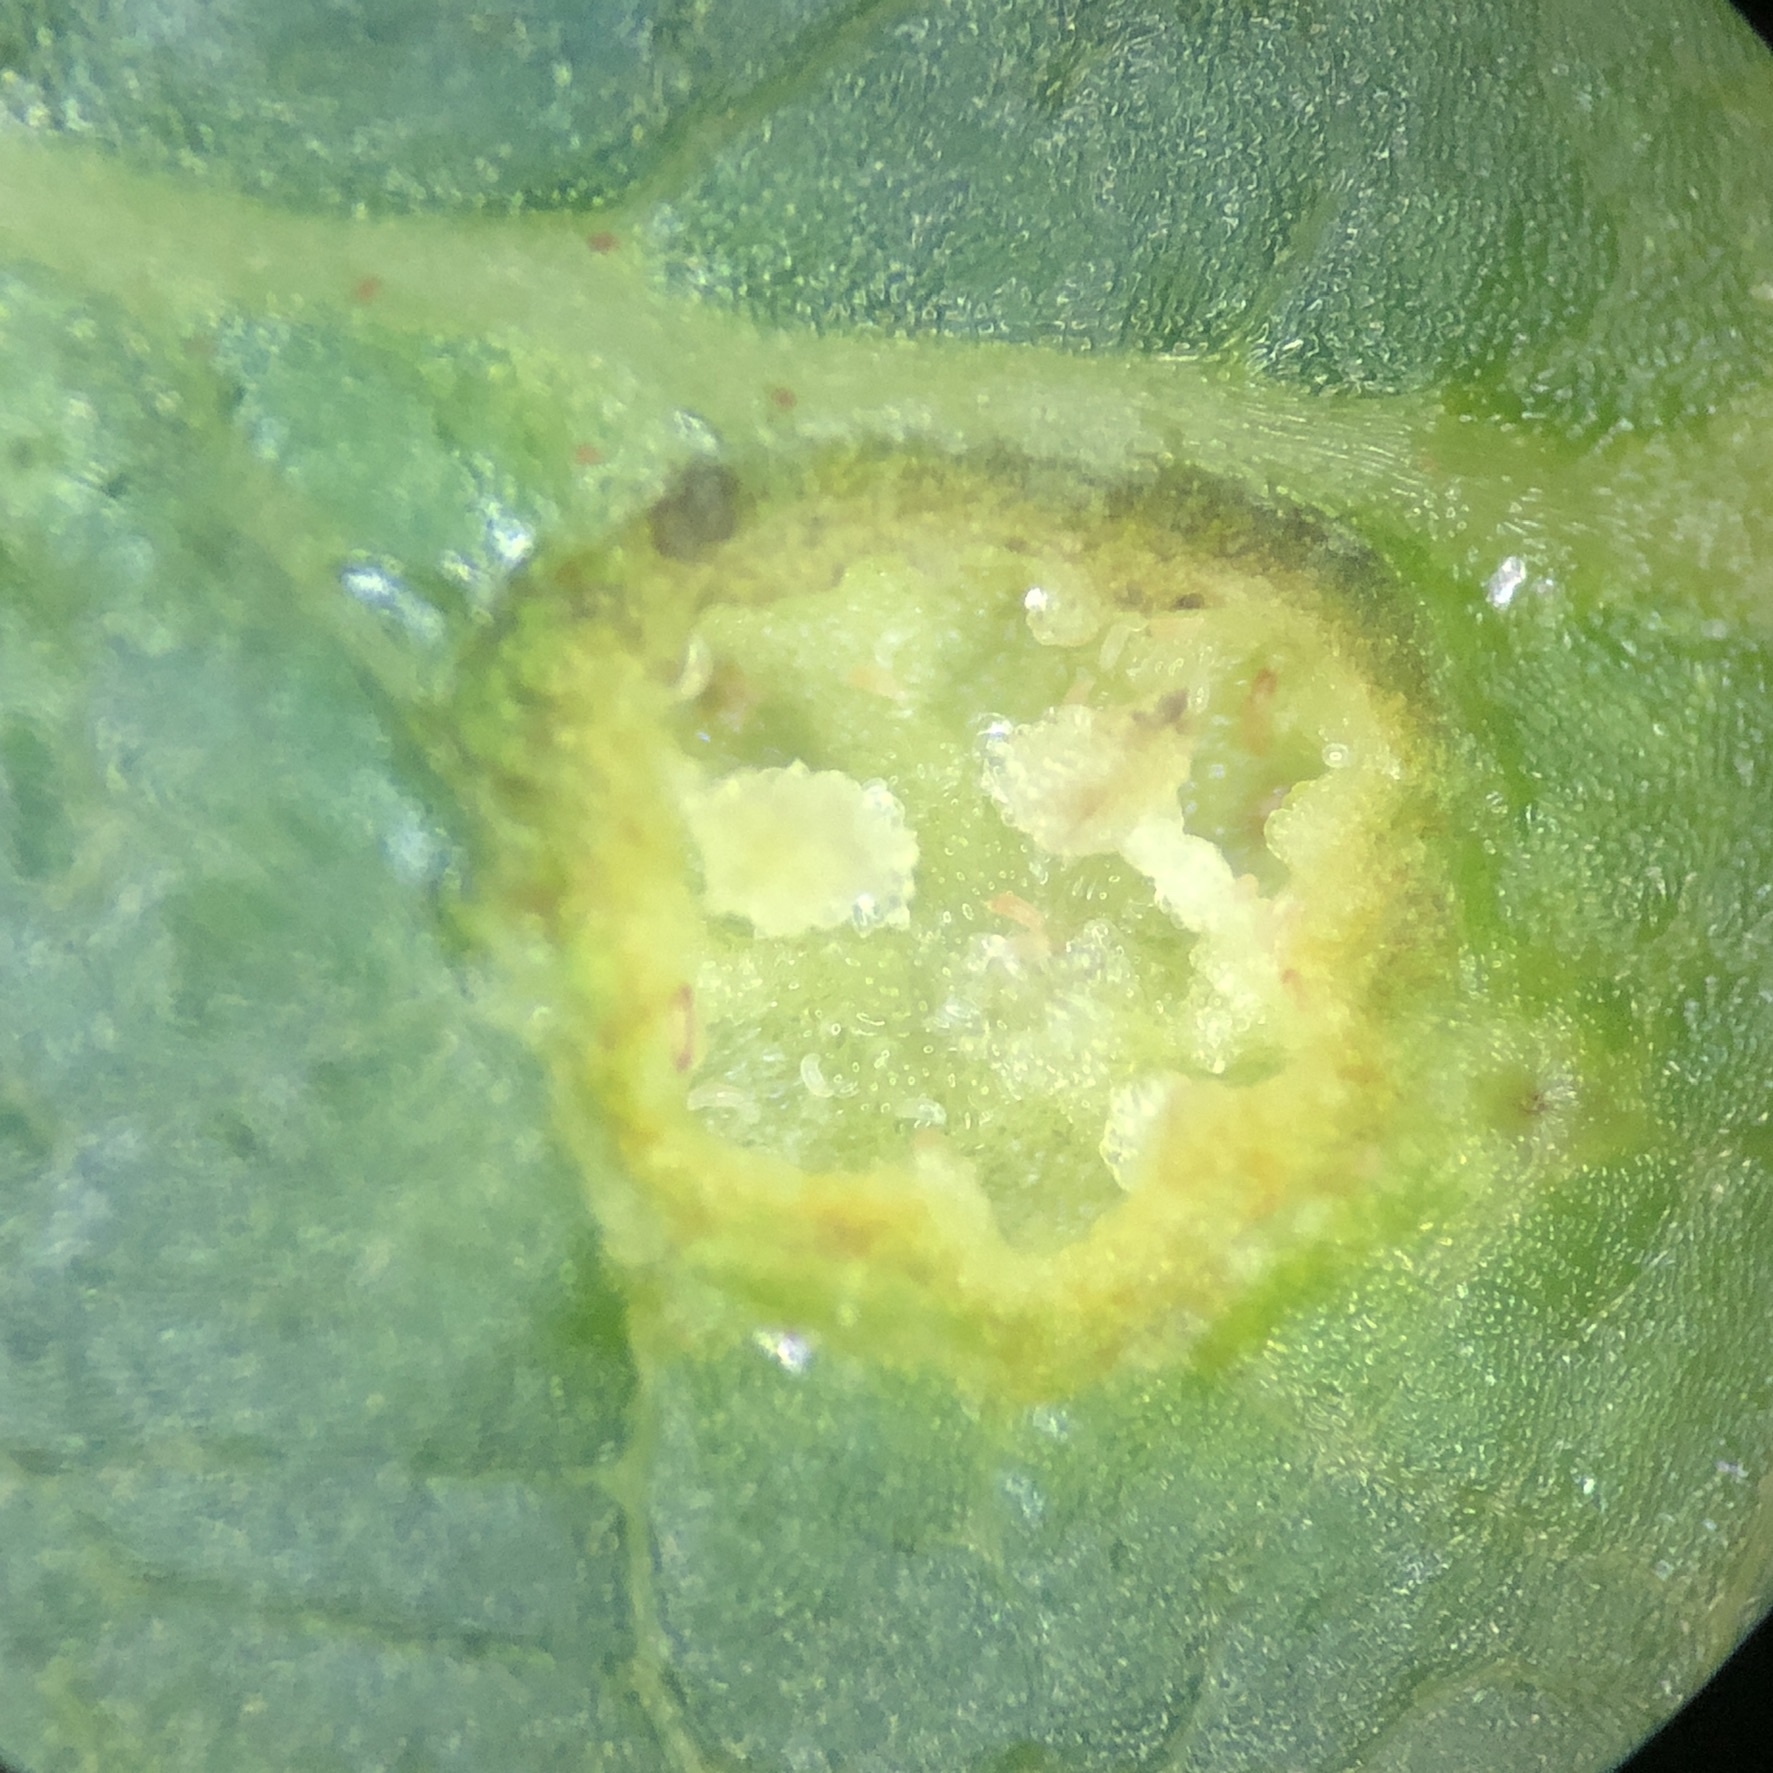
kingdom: Animalia
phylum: Arthropoda
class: Arachnida
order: Trombidiformes
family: Eriophyidae
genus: Aceria
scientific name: Aceria
